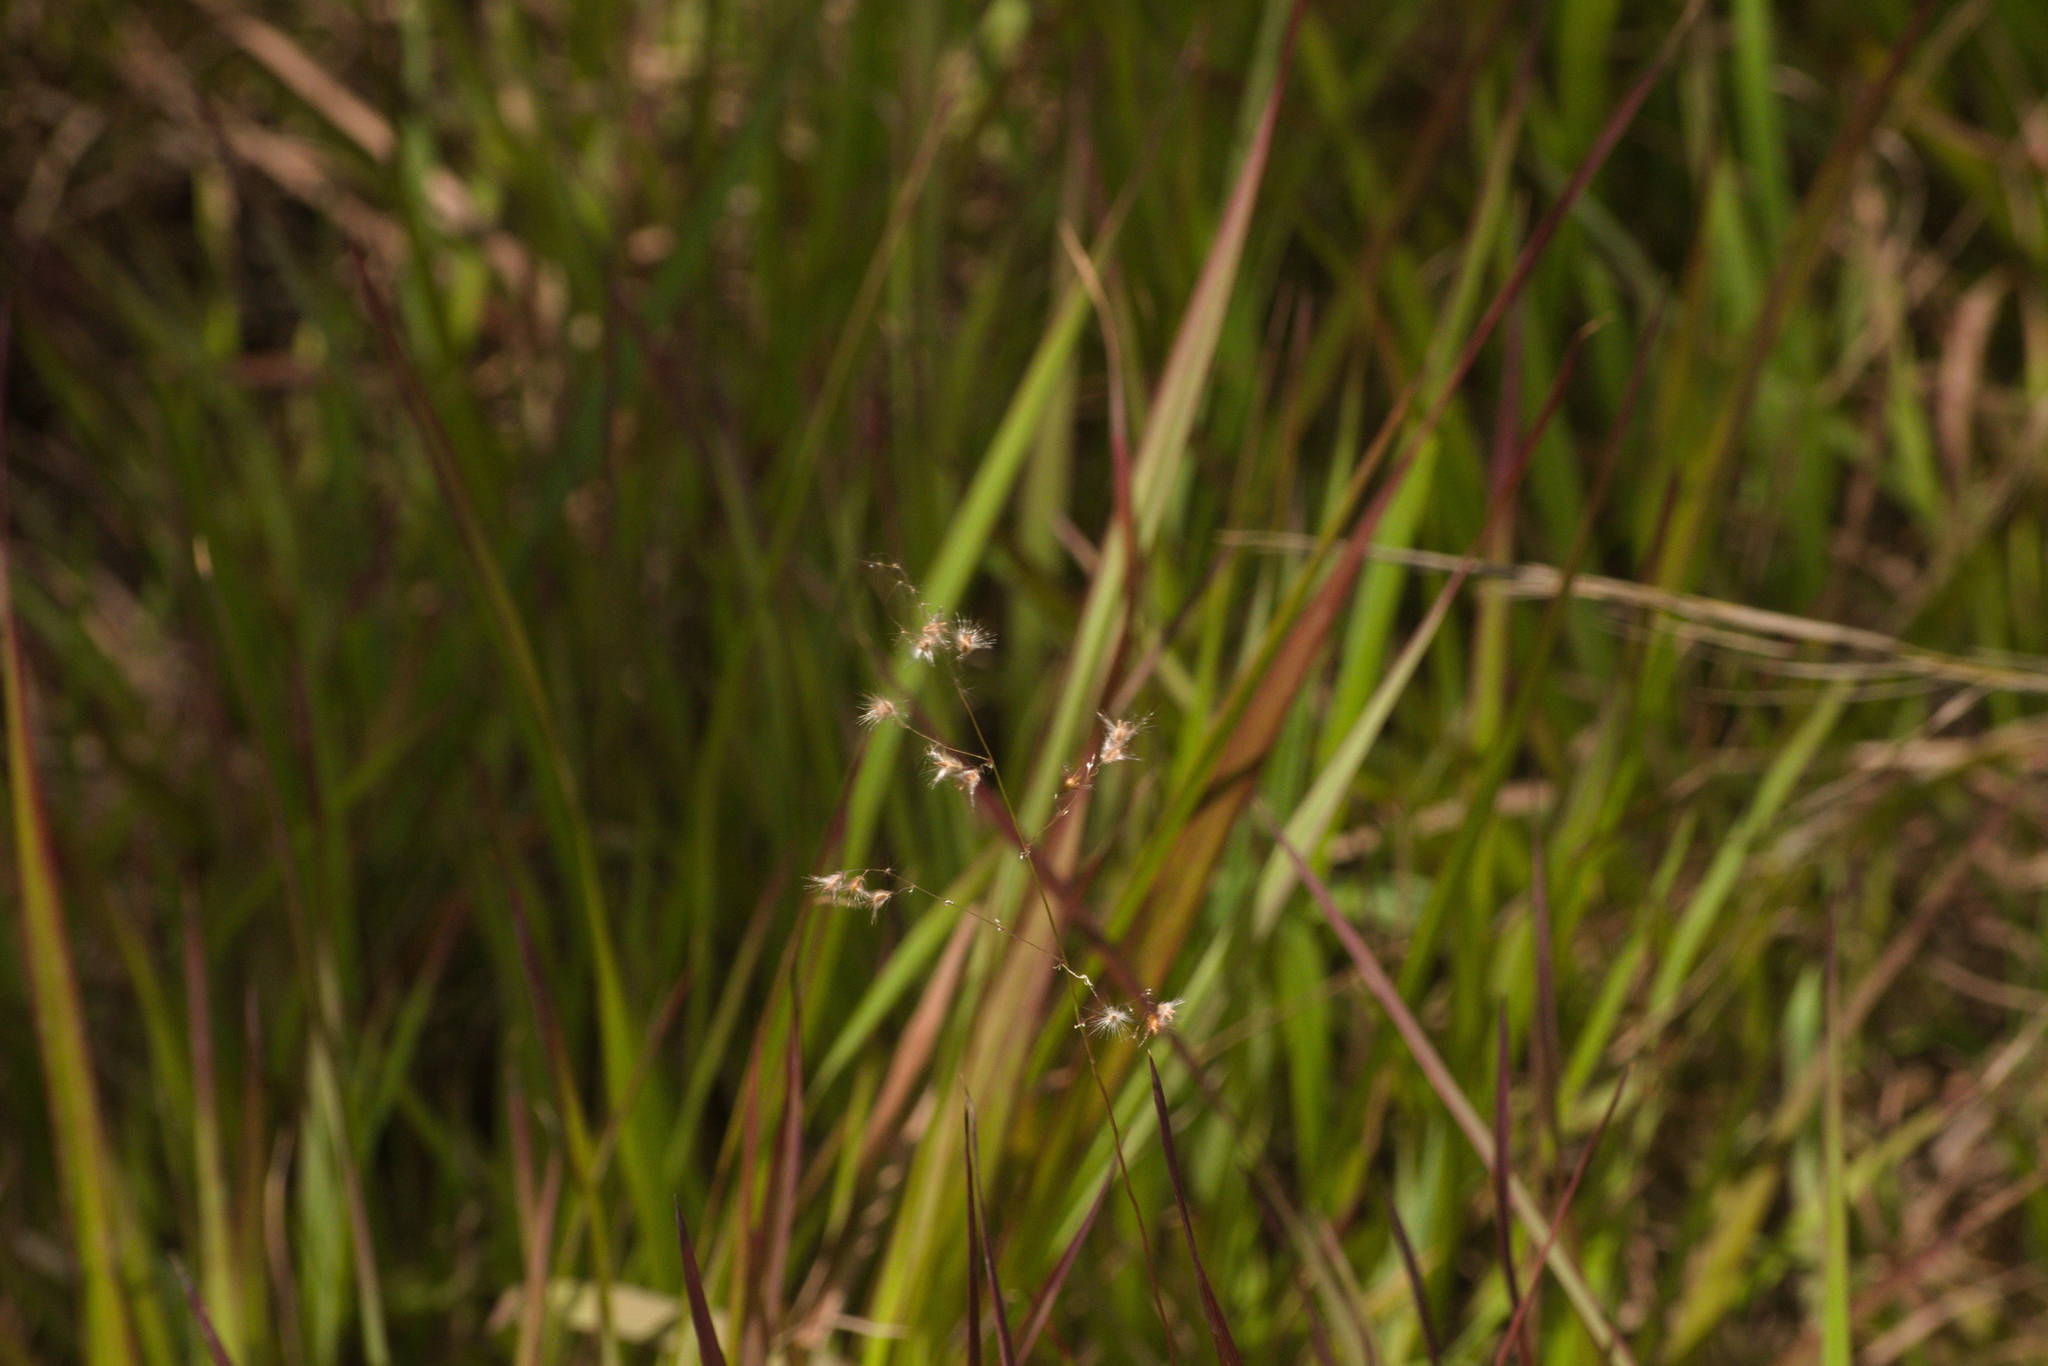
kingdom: Plantae
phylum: Tracheophyta
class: Liliopsida
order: Poales
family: Poaceae
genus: Melinis
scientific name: Melinis repens
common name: Rose natal grass
